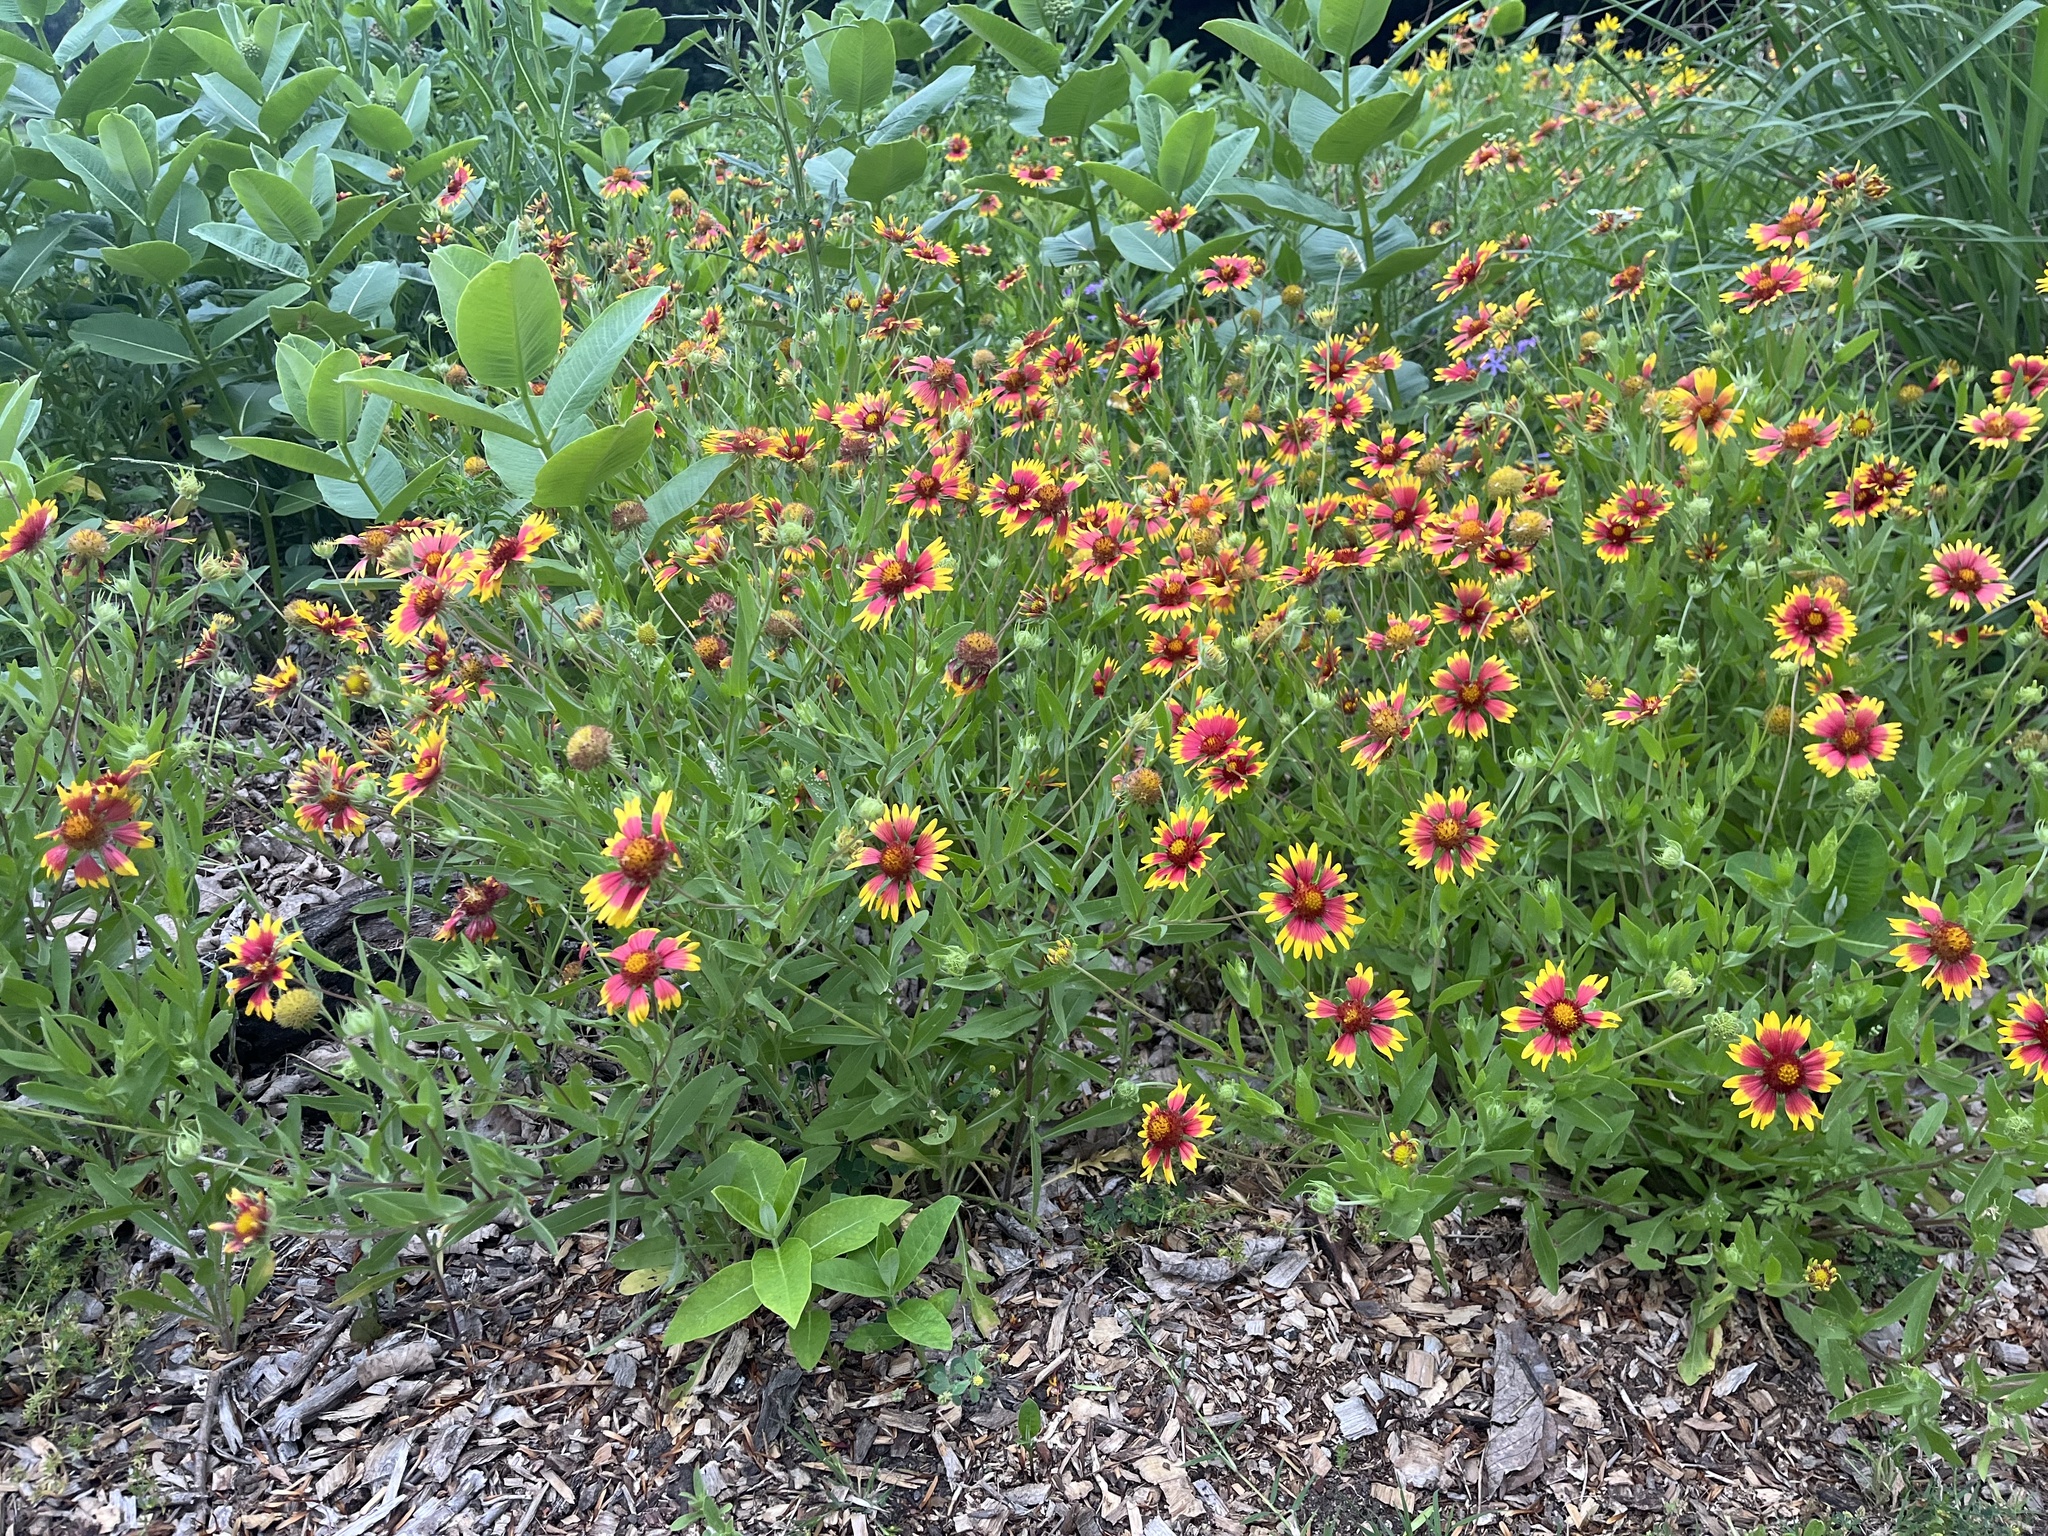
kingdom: Plantae
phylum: Tracheophyta
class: Magnoliopsida
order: Asterales
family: Asteraceae
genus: Gaillardia
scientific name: Gaillardia pulchella
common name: Firewheel
